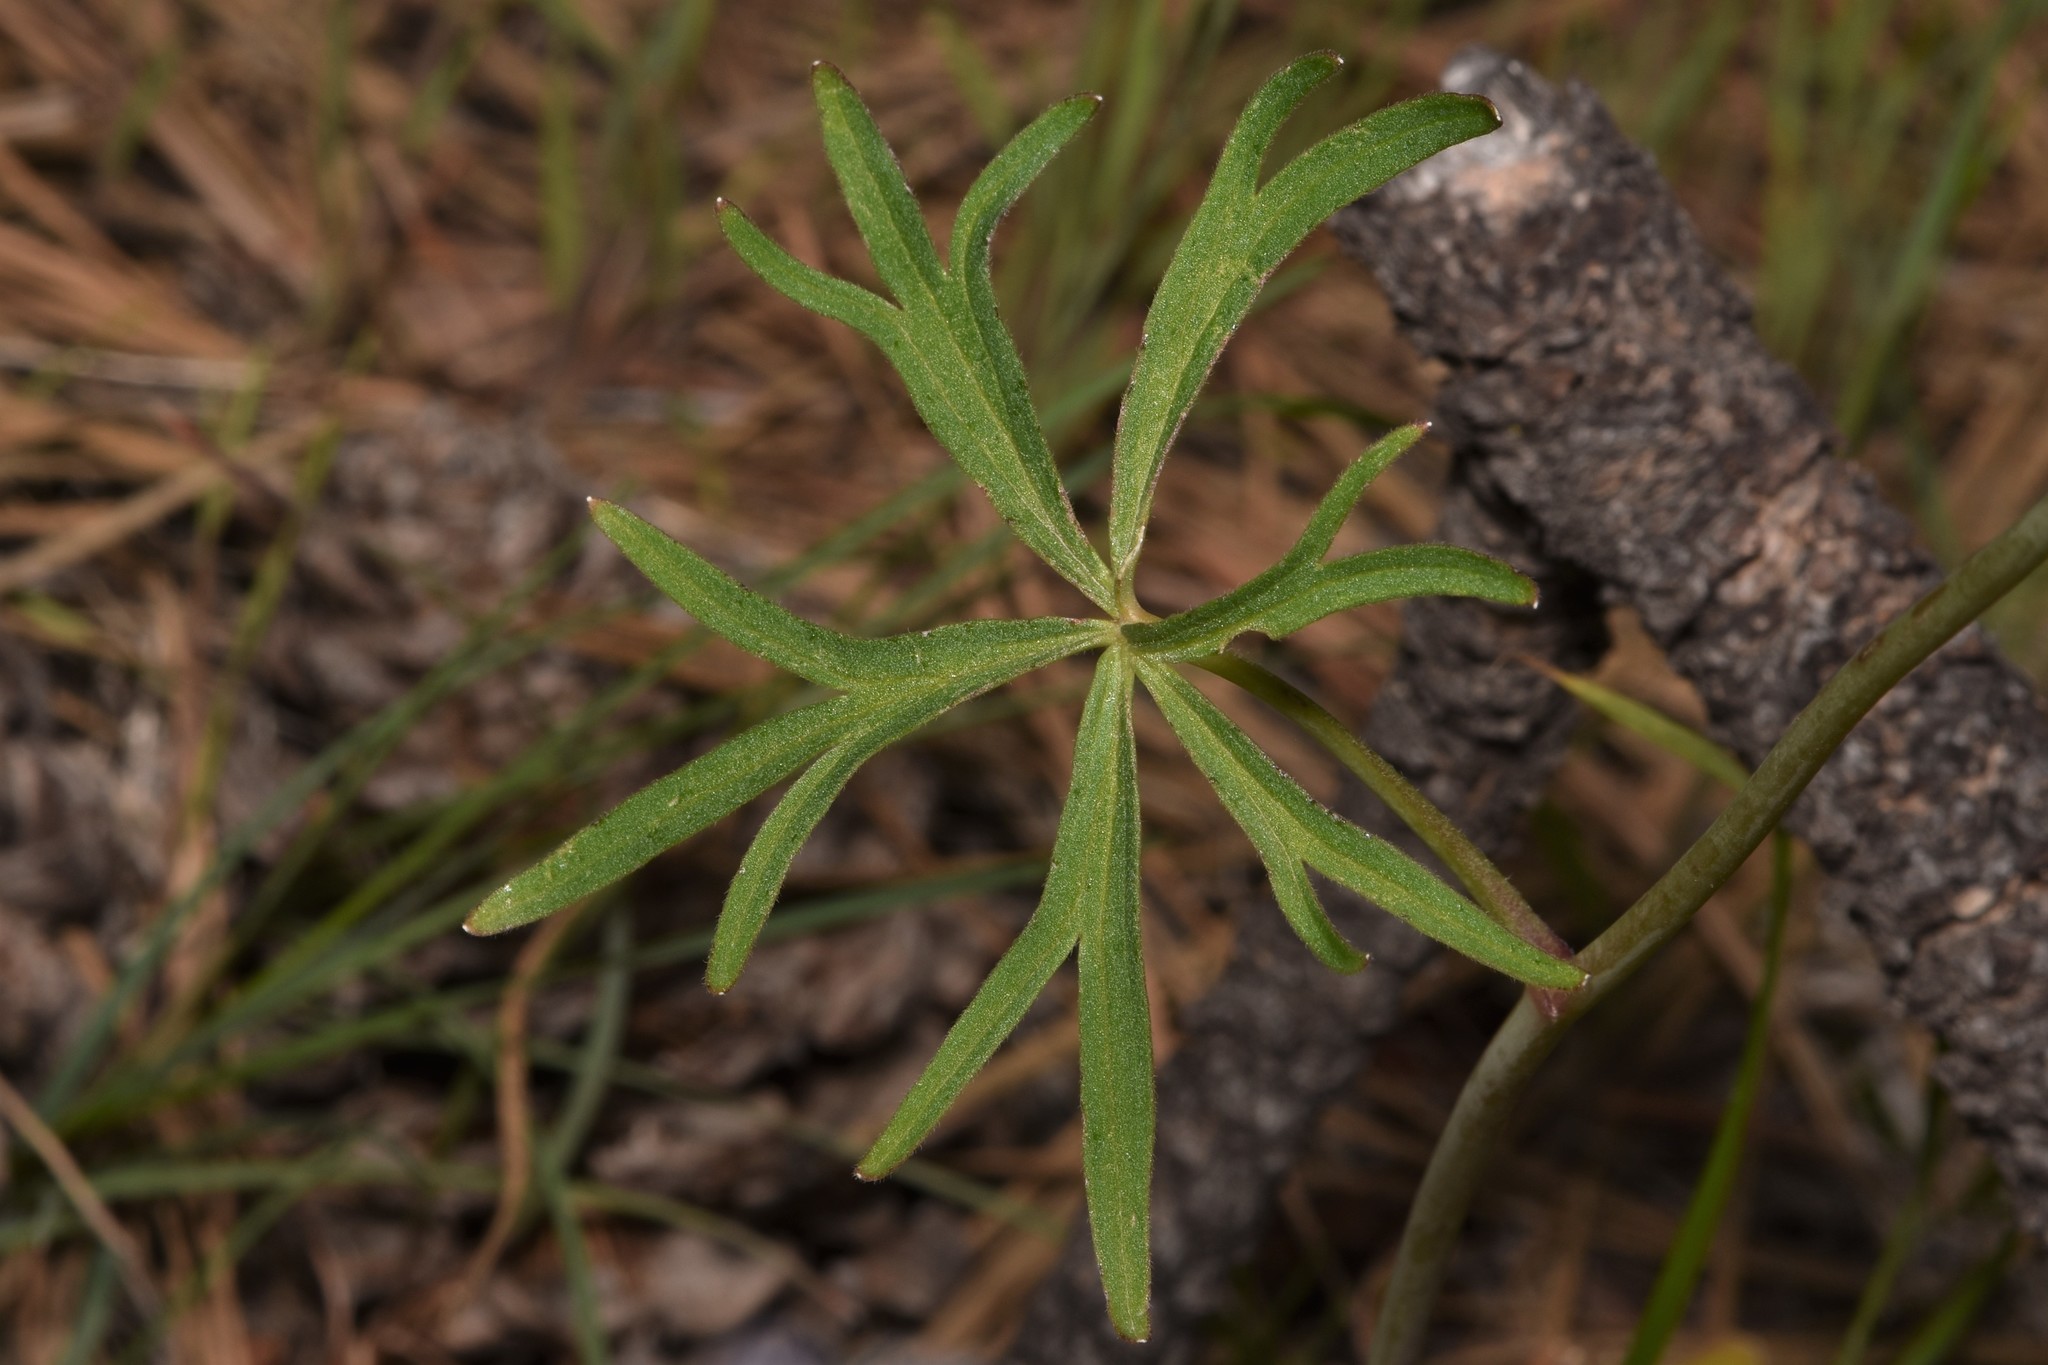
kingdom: Plantae
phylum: Tracheophyta
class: Magnoliopsida
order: Ranunculales
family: Ranunculaceae
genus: Delphinium
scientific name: Delphinium nuttallianum
